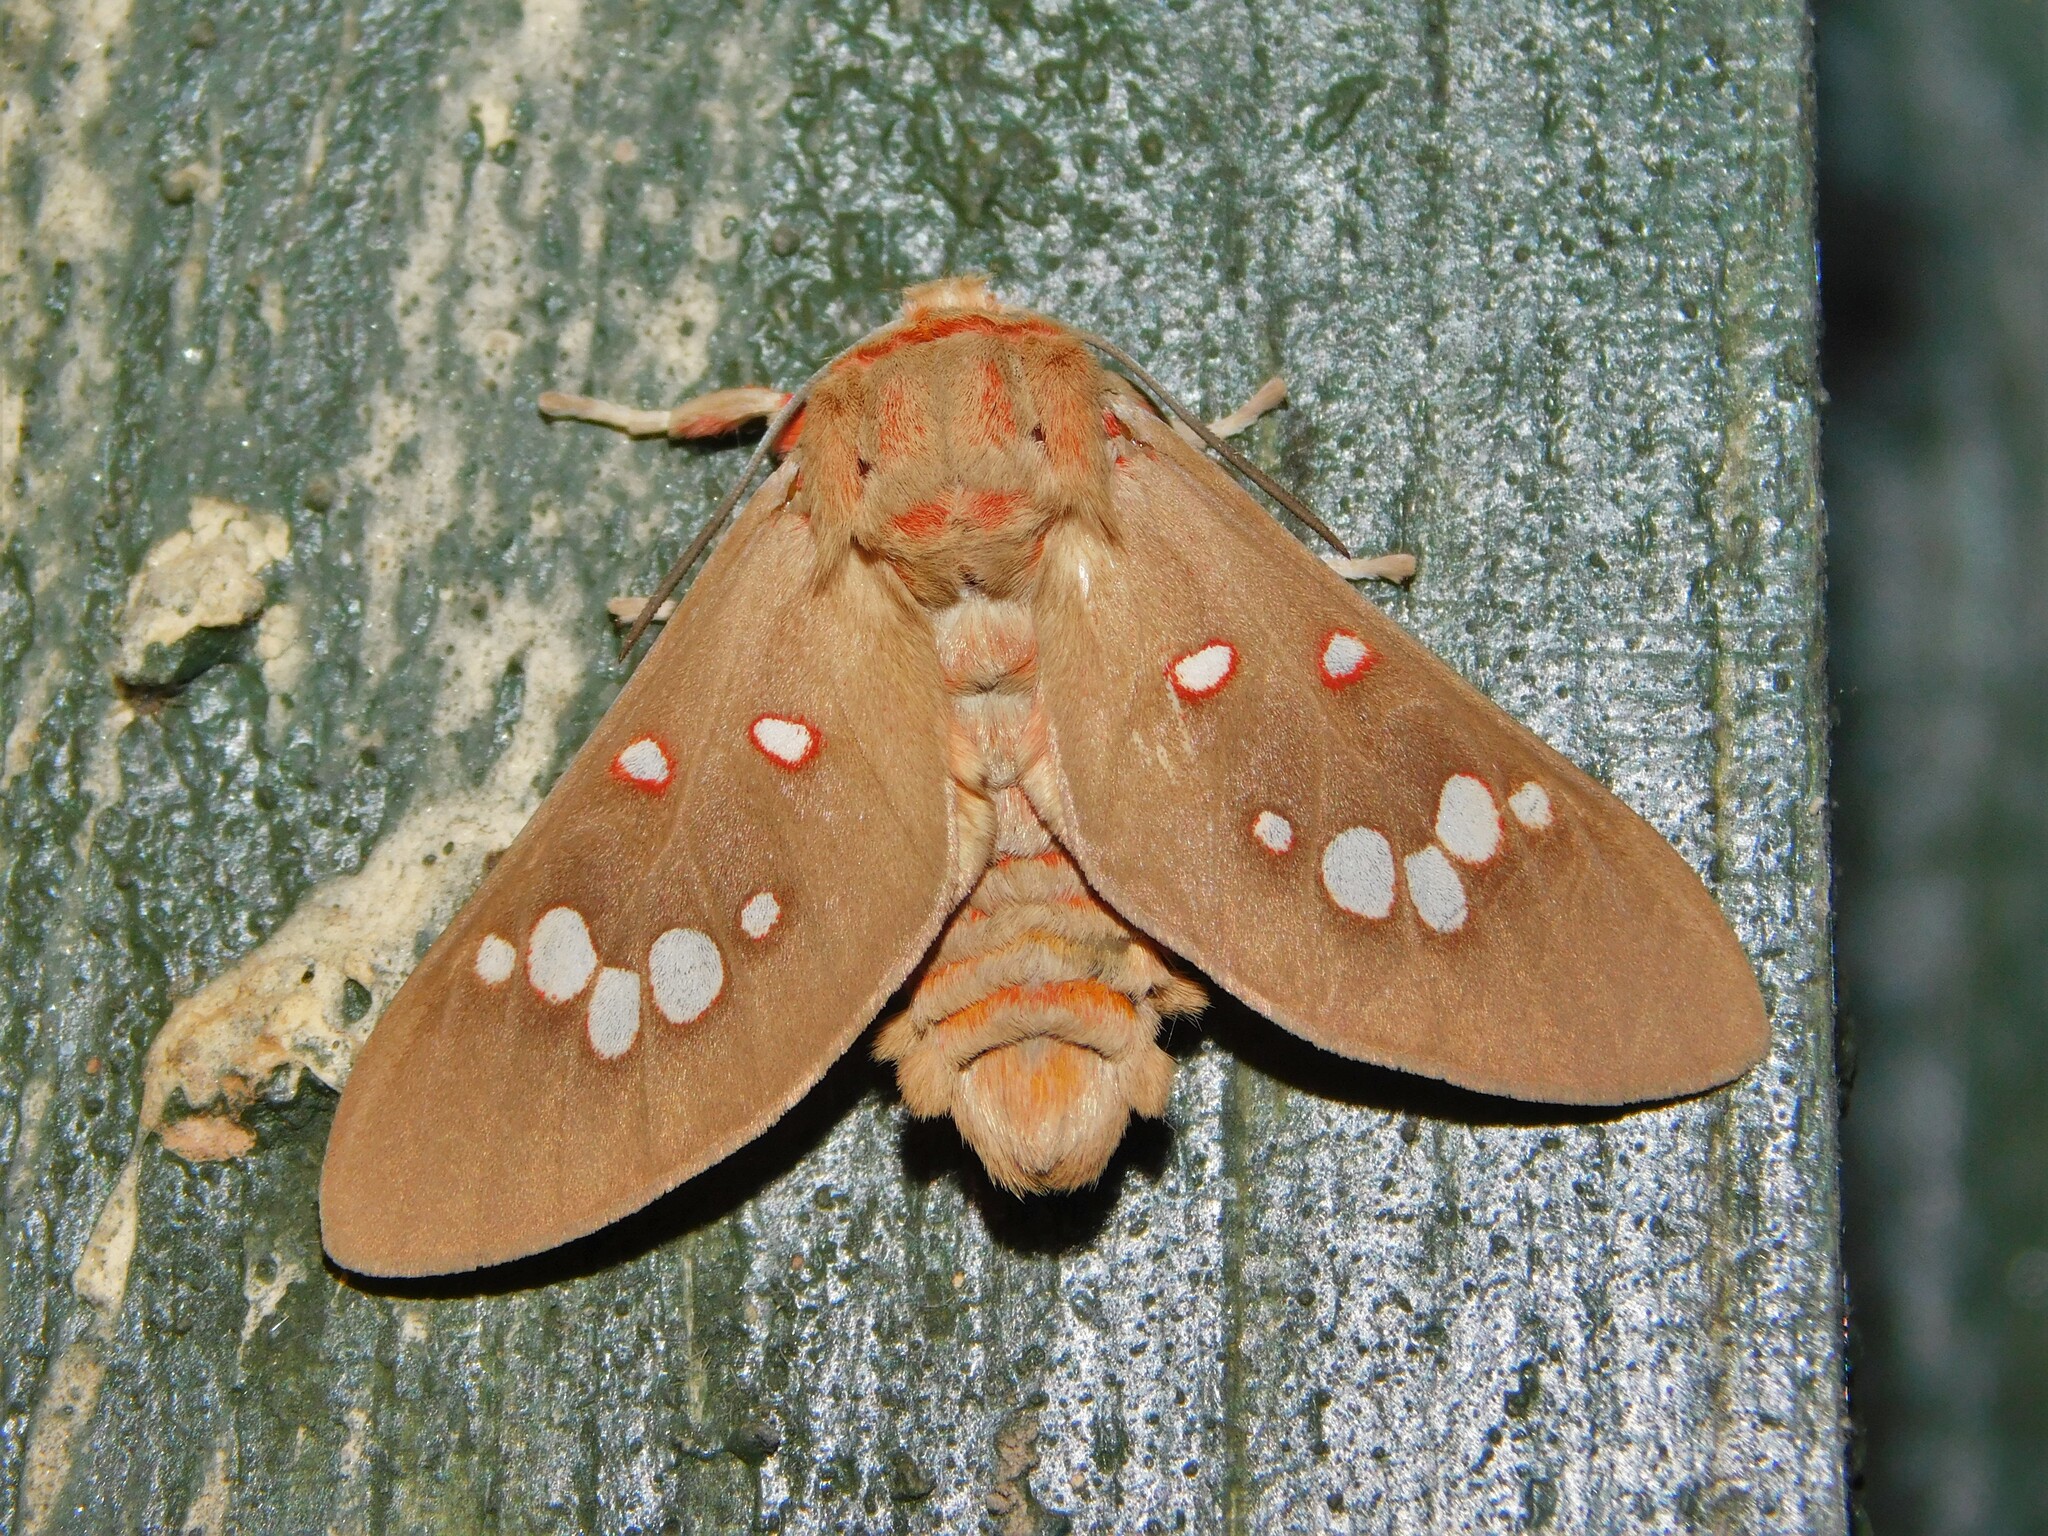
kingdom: Animalia
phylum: Arthropoda
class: Insecta
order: Lepidoptera
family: Erebidae
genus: Balacra
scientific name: Balacra preussi
